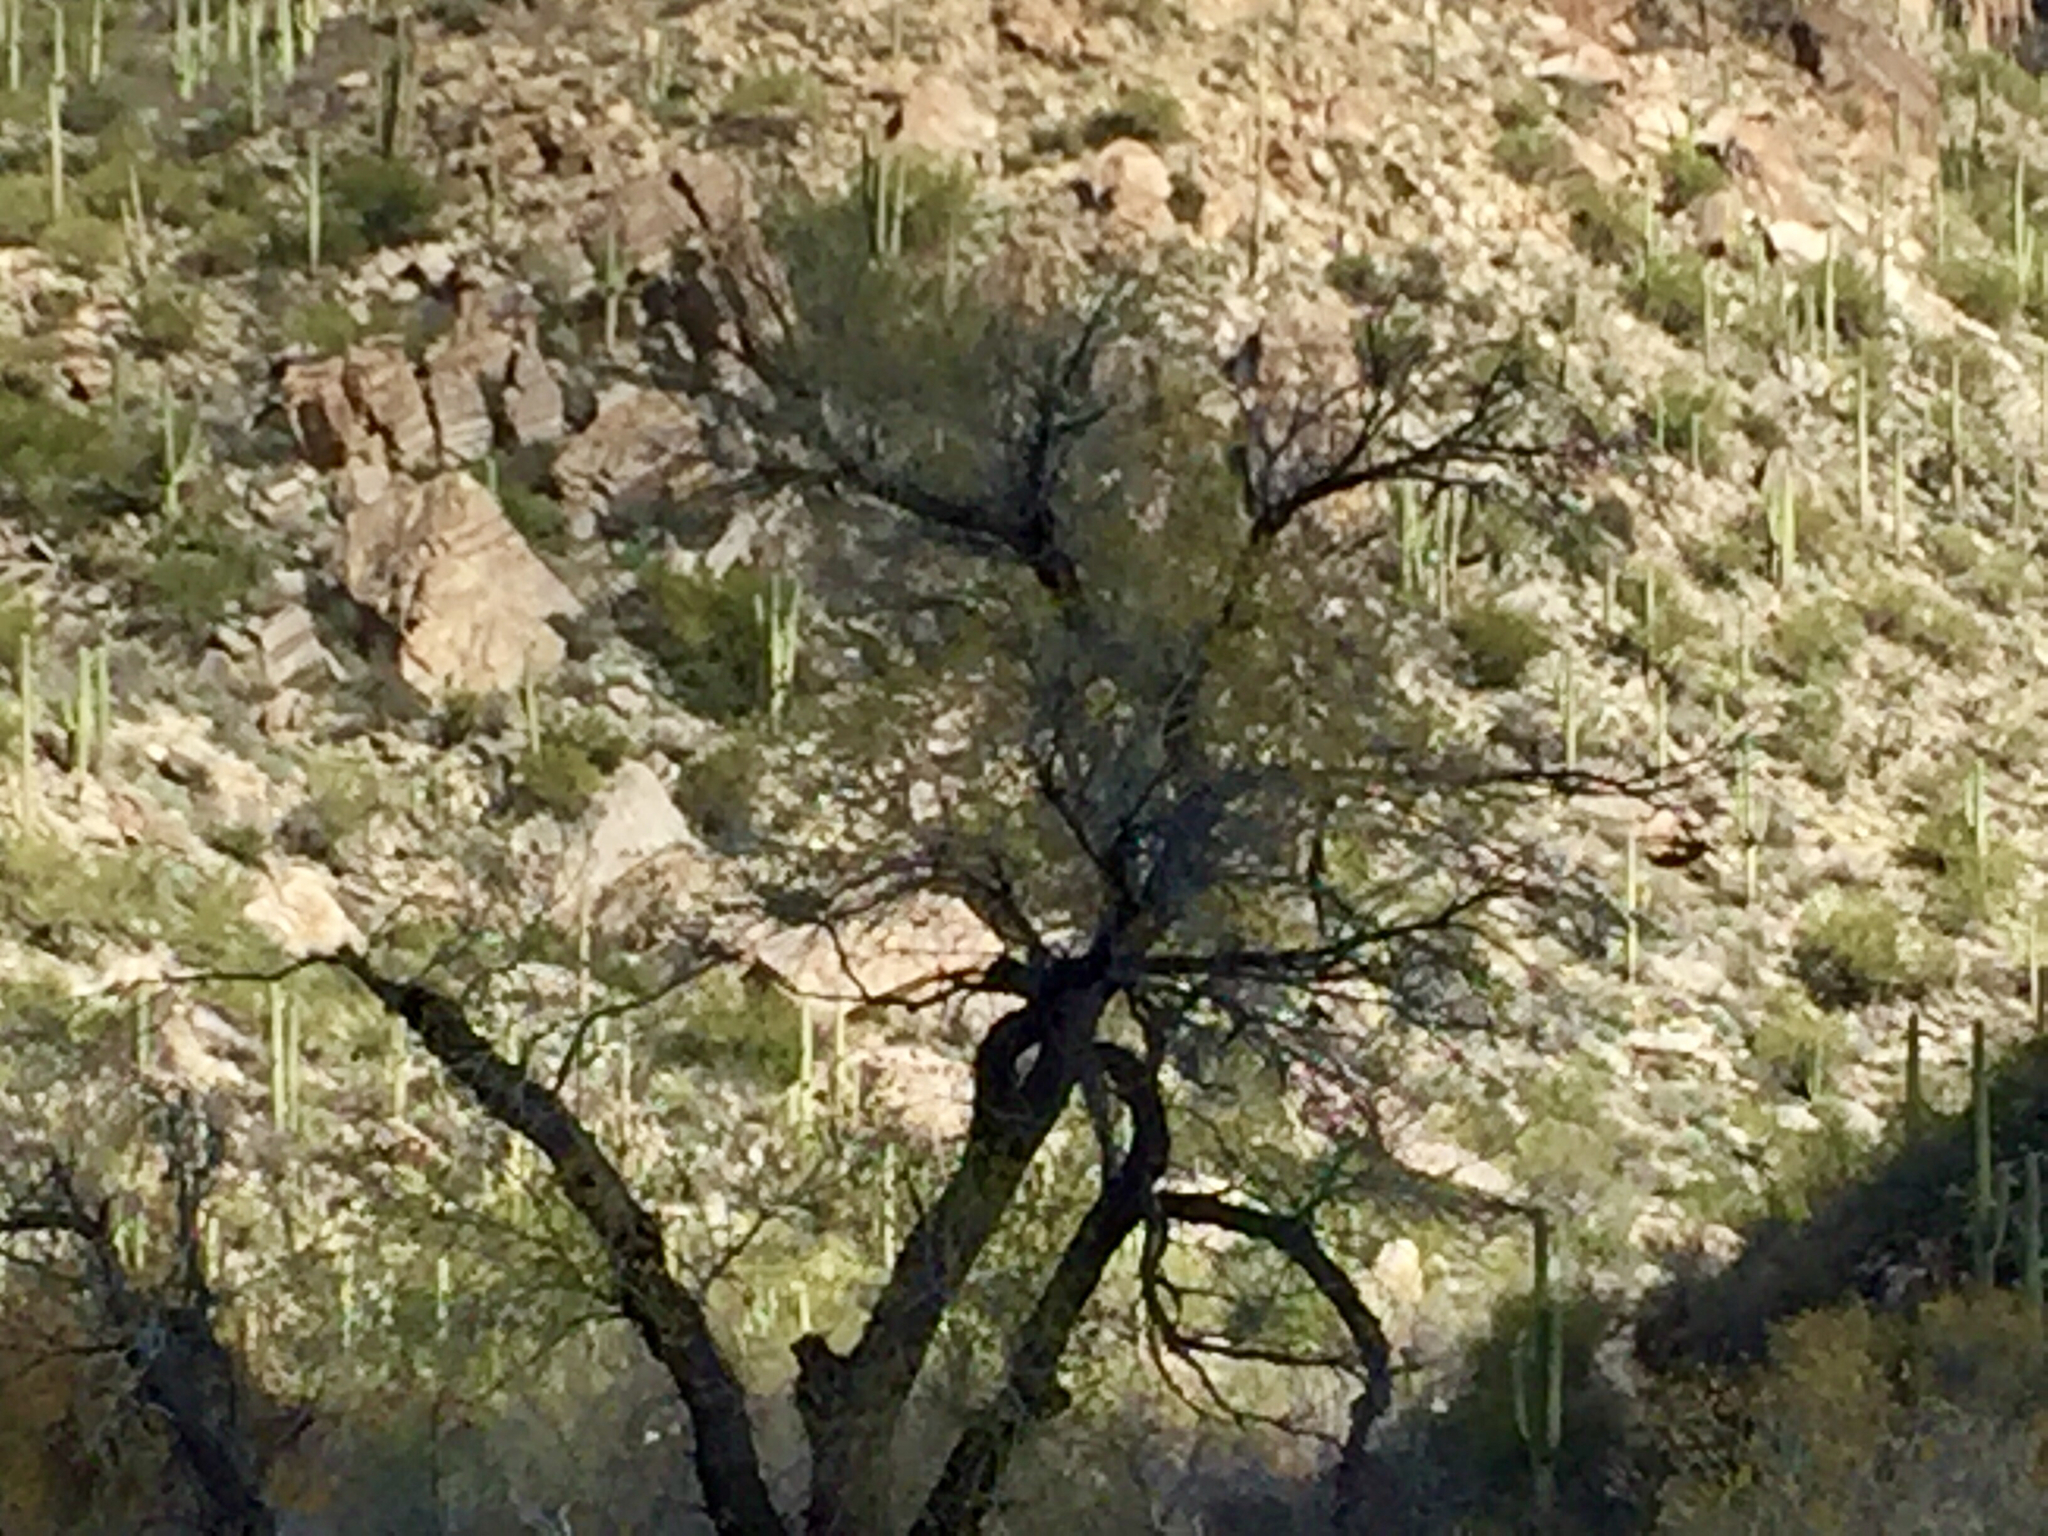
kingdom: Plantae
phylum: Tracheophyta
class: Magnoliopsida
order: Malpighiales
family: Salicaceae
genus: Salix
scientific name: Salix gooddingii
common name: Goodding's willow
